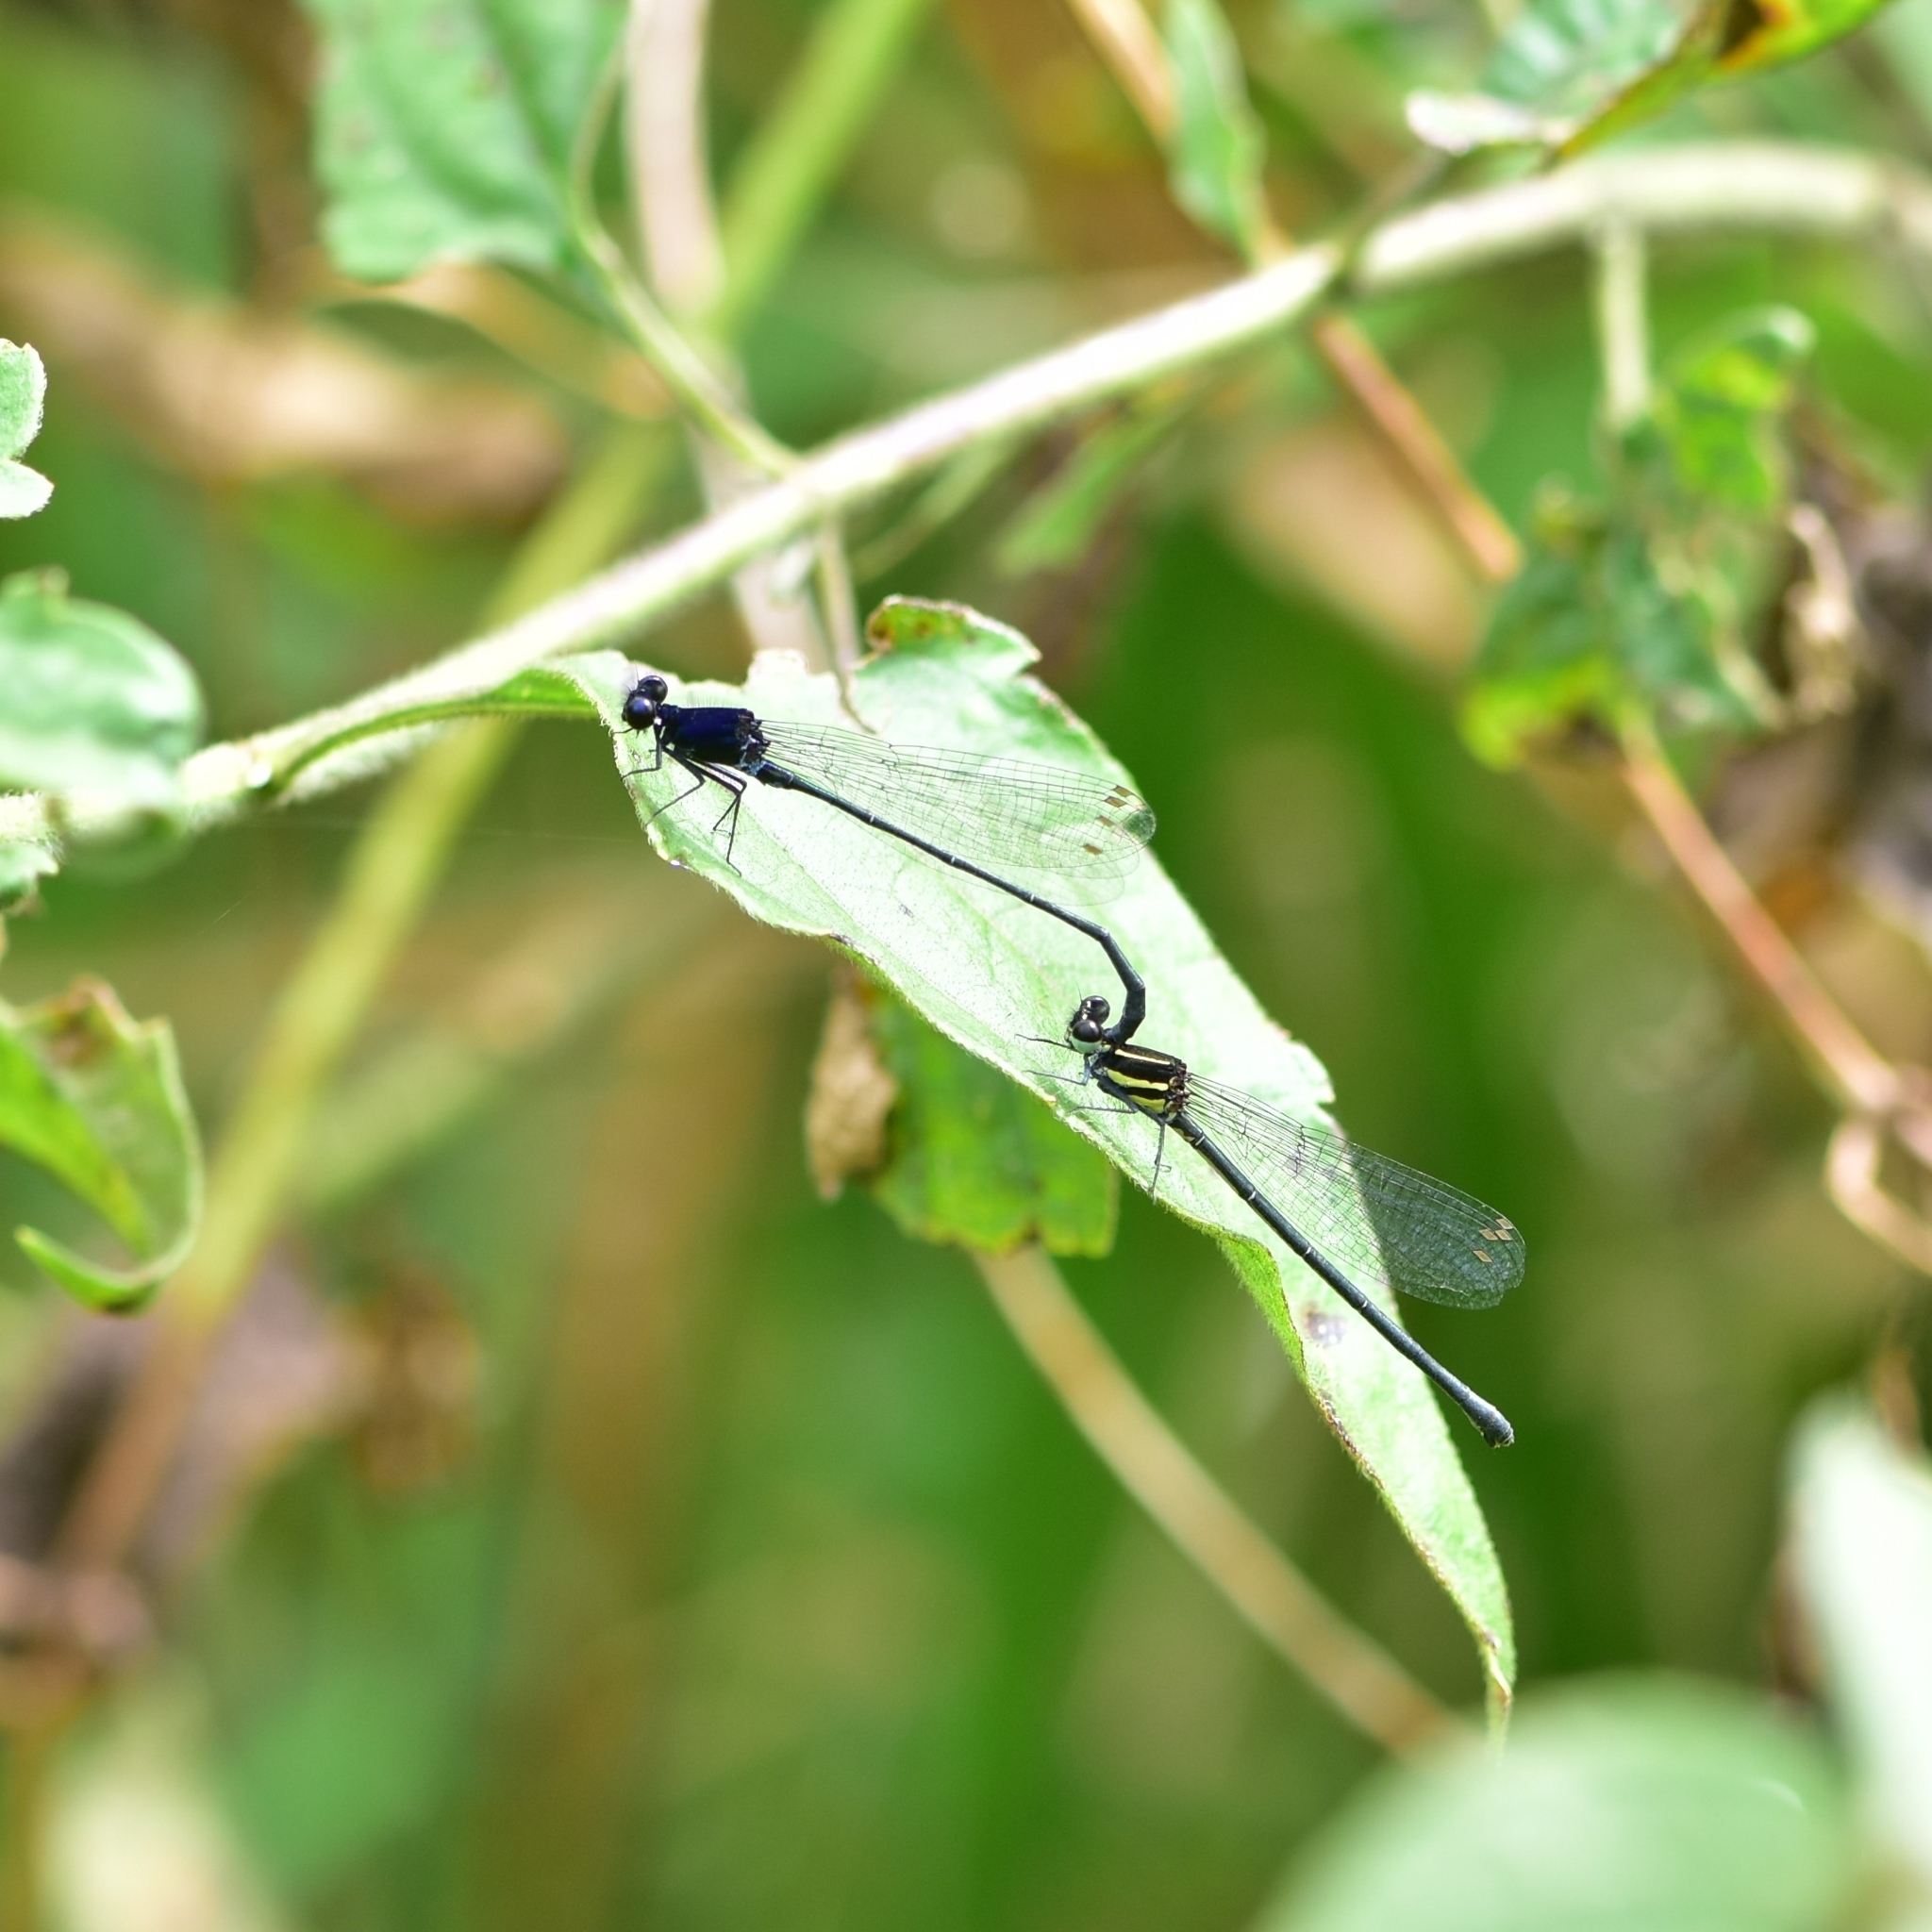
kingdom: Animalia
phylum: Arthropoda
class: Insecta
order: Odonata
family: Platycnemididae
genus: Onychargia
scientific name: Onychargia atrocyana
